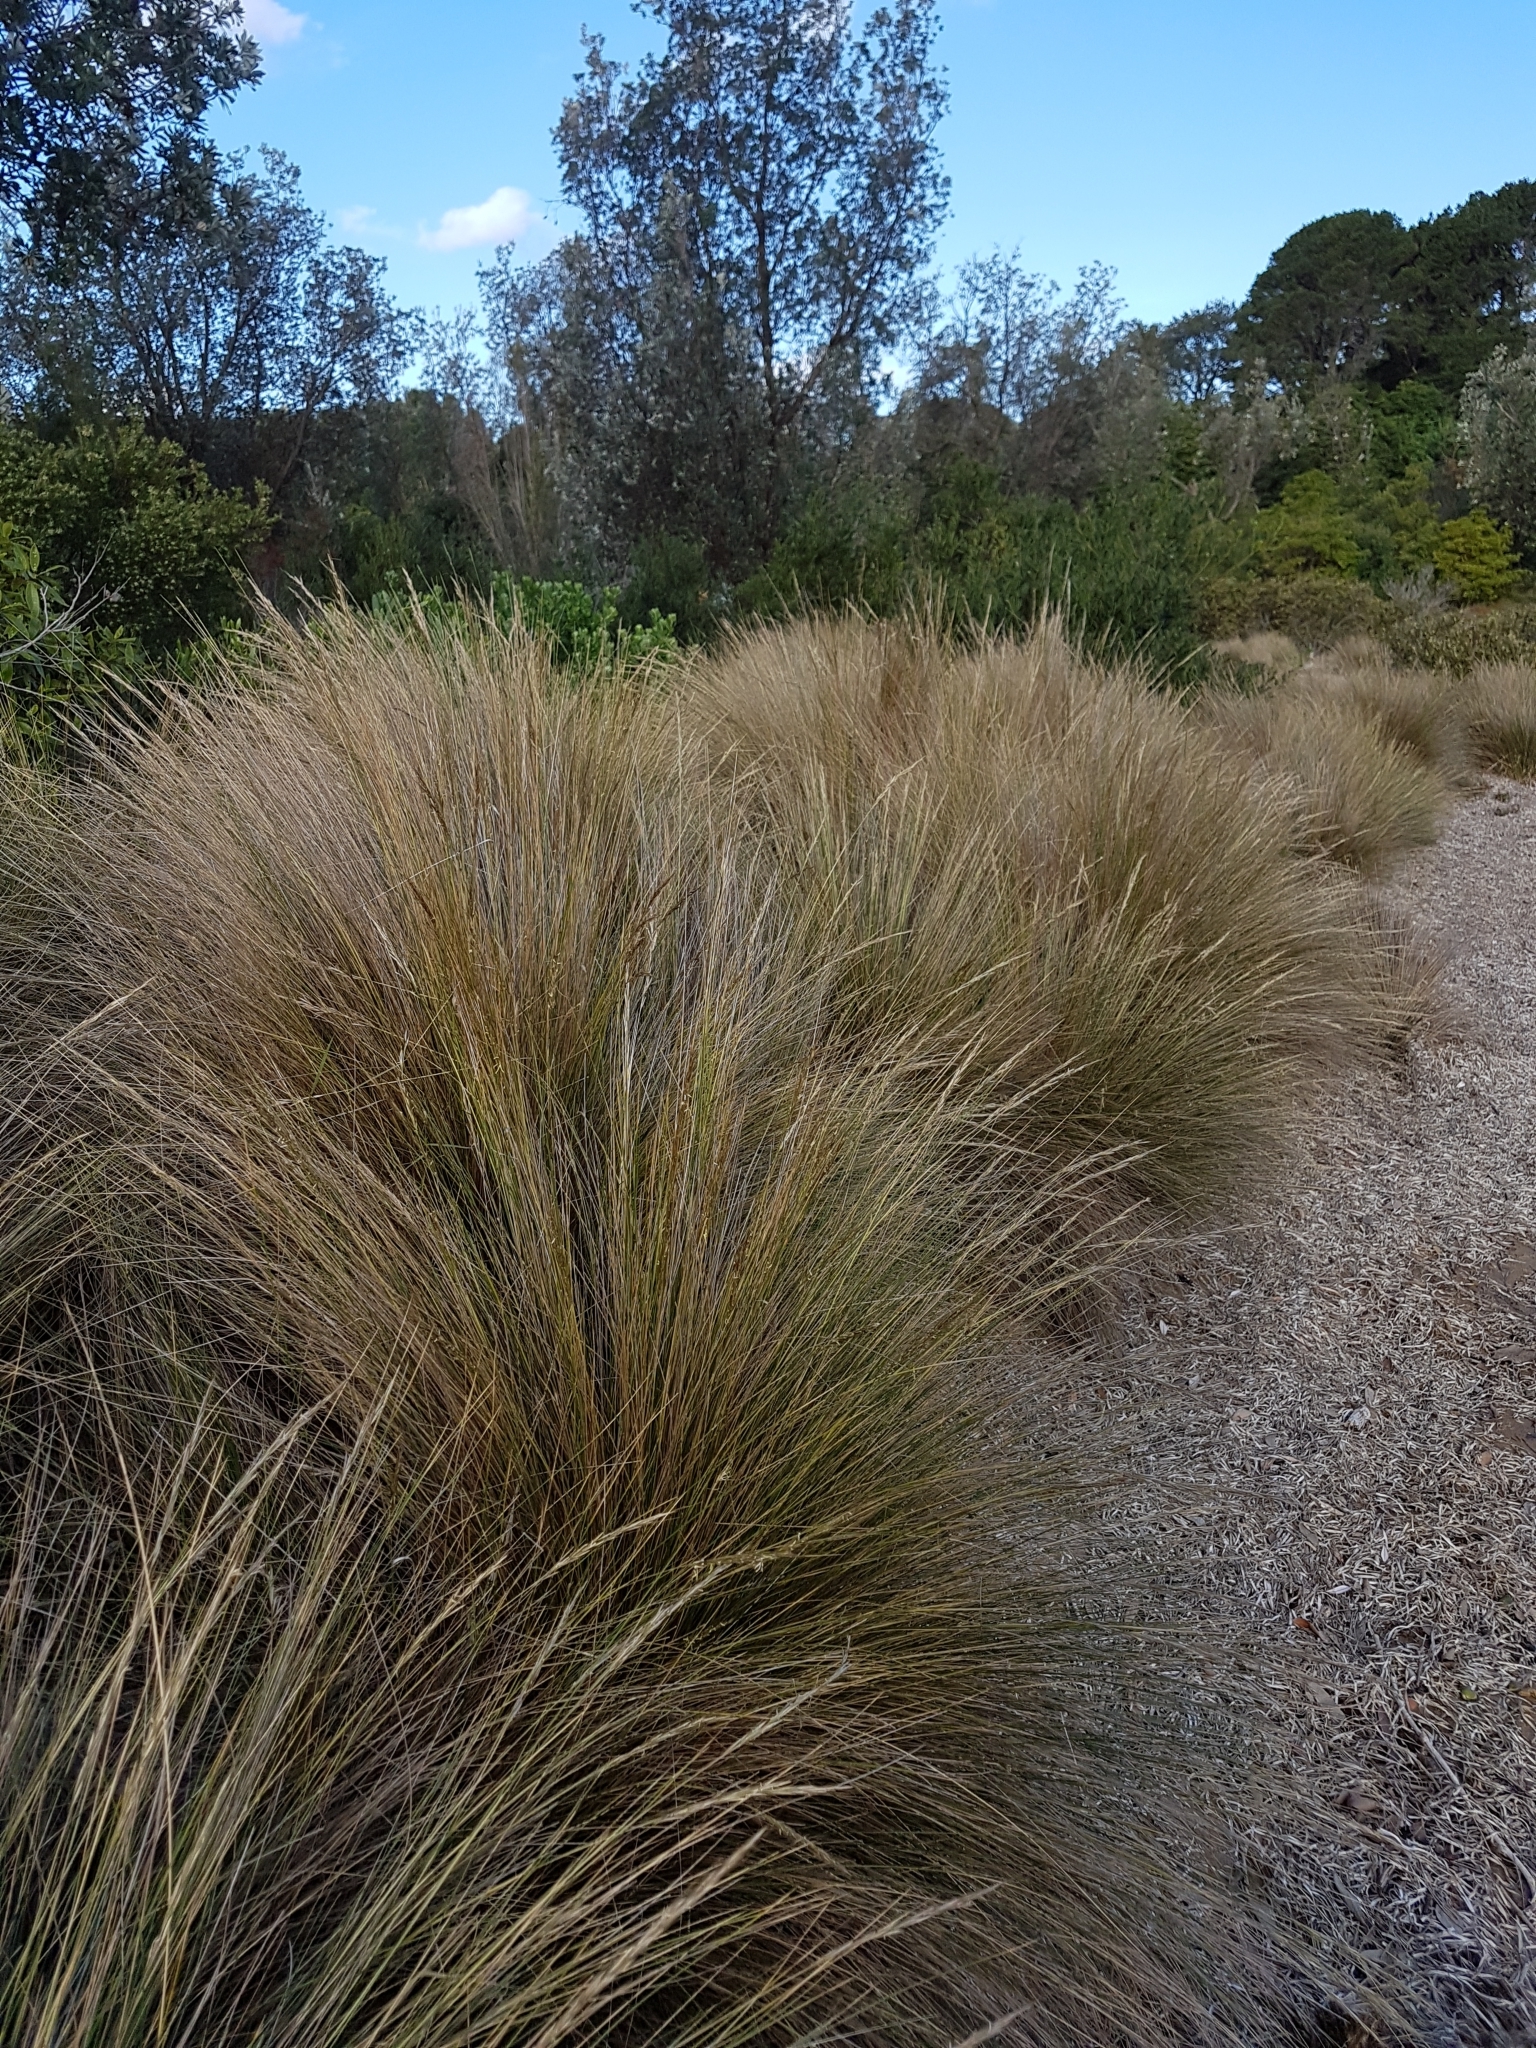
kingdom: Plantae
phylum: Tracheophyta
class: Liliopsida
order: Poales
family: Poaceae
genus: Austrostipa
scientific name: Austrostipa stipoides
